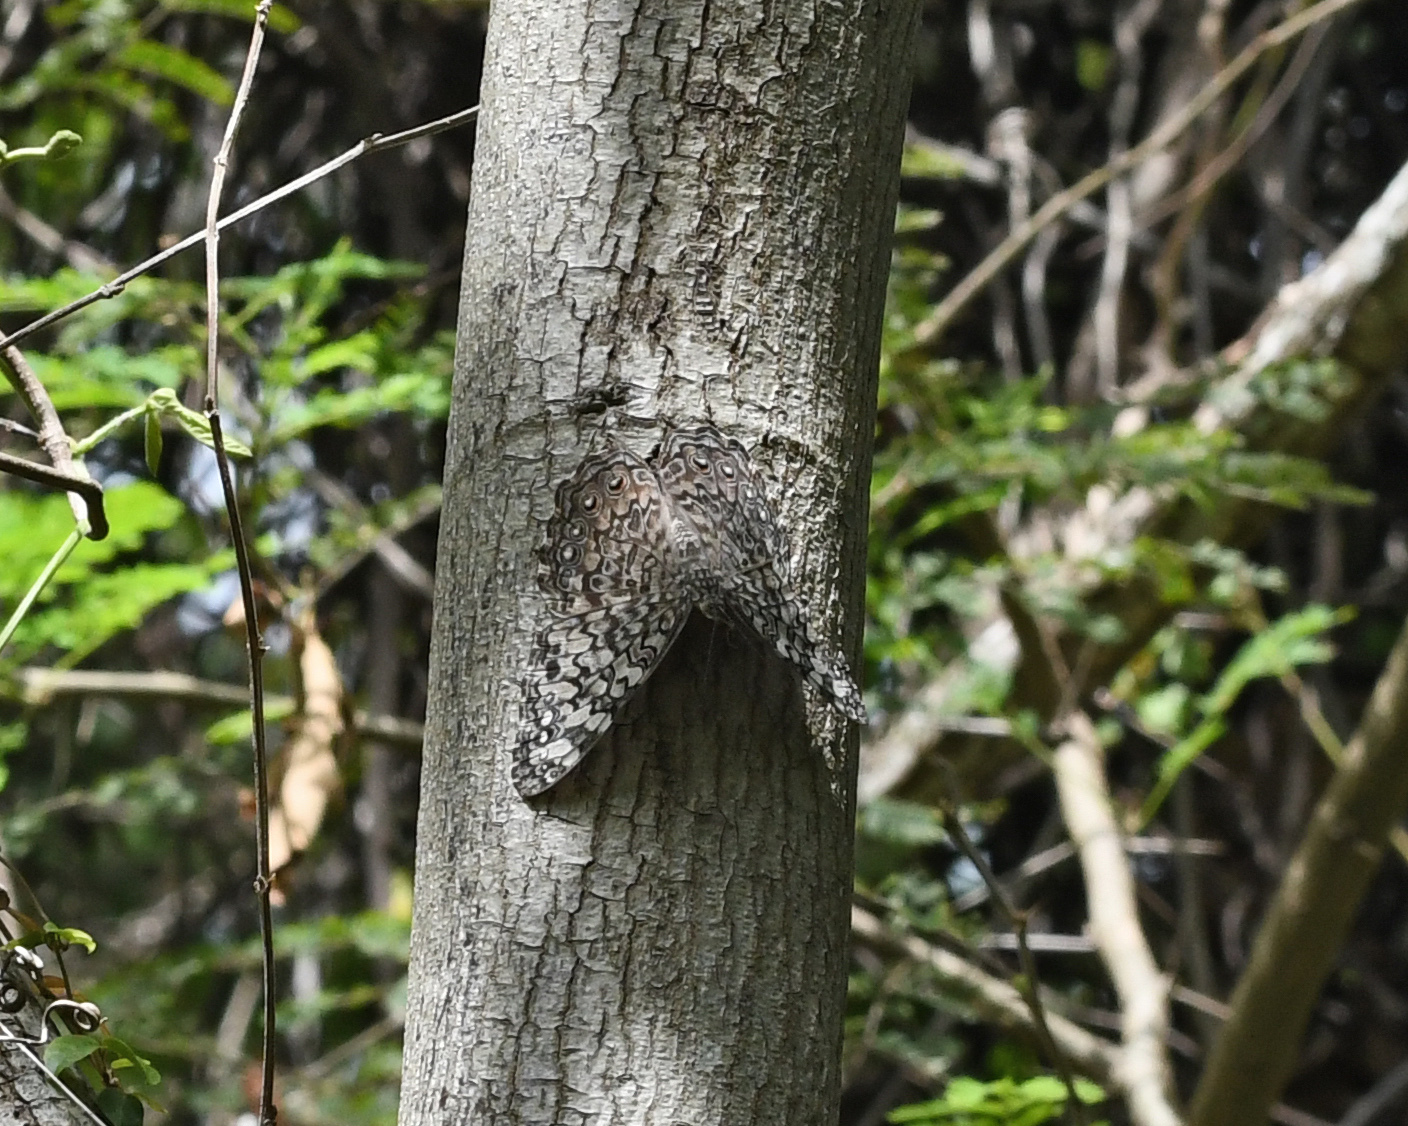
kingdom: Animalia
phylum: Arthropoda
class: Insecta
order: Lepidoptera
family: Nymphalidae
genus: Hamadryas
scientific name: Hamadryas februa
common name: Gray cracker
